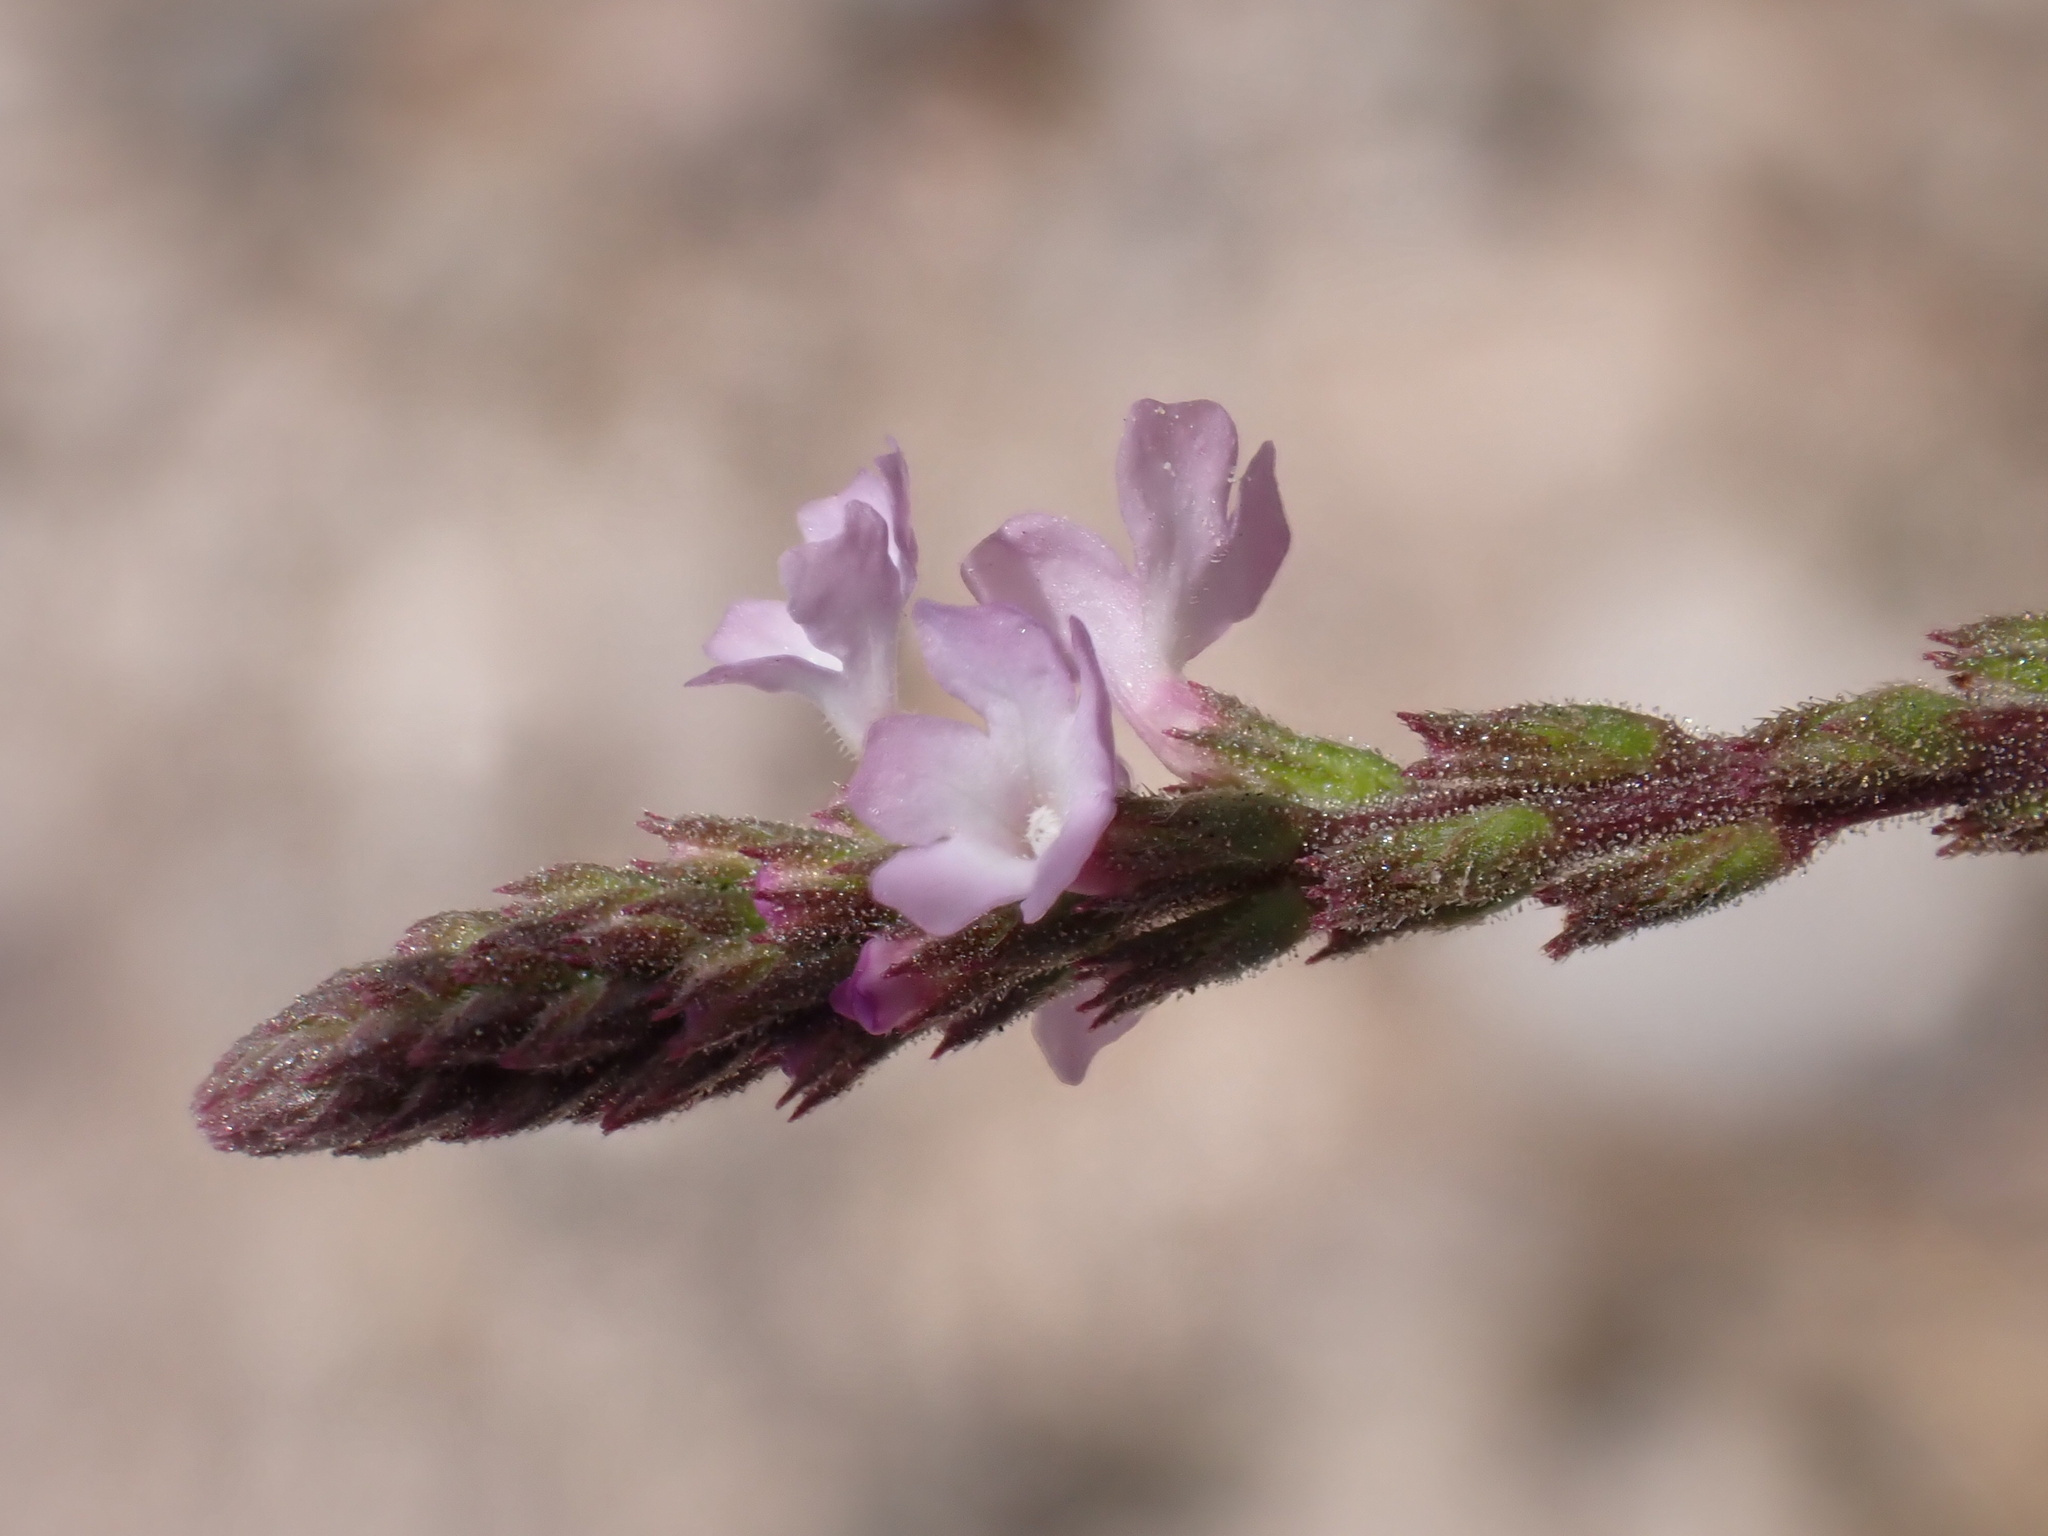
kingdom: Plantae
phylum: Tracheophyta
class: Magnoliopsida
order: Lamiales
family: Verbenaceae
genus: Verbena
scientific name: Verbena supina
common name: Trailing vervain
